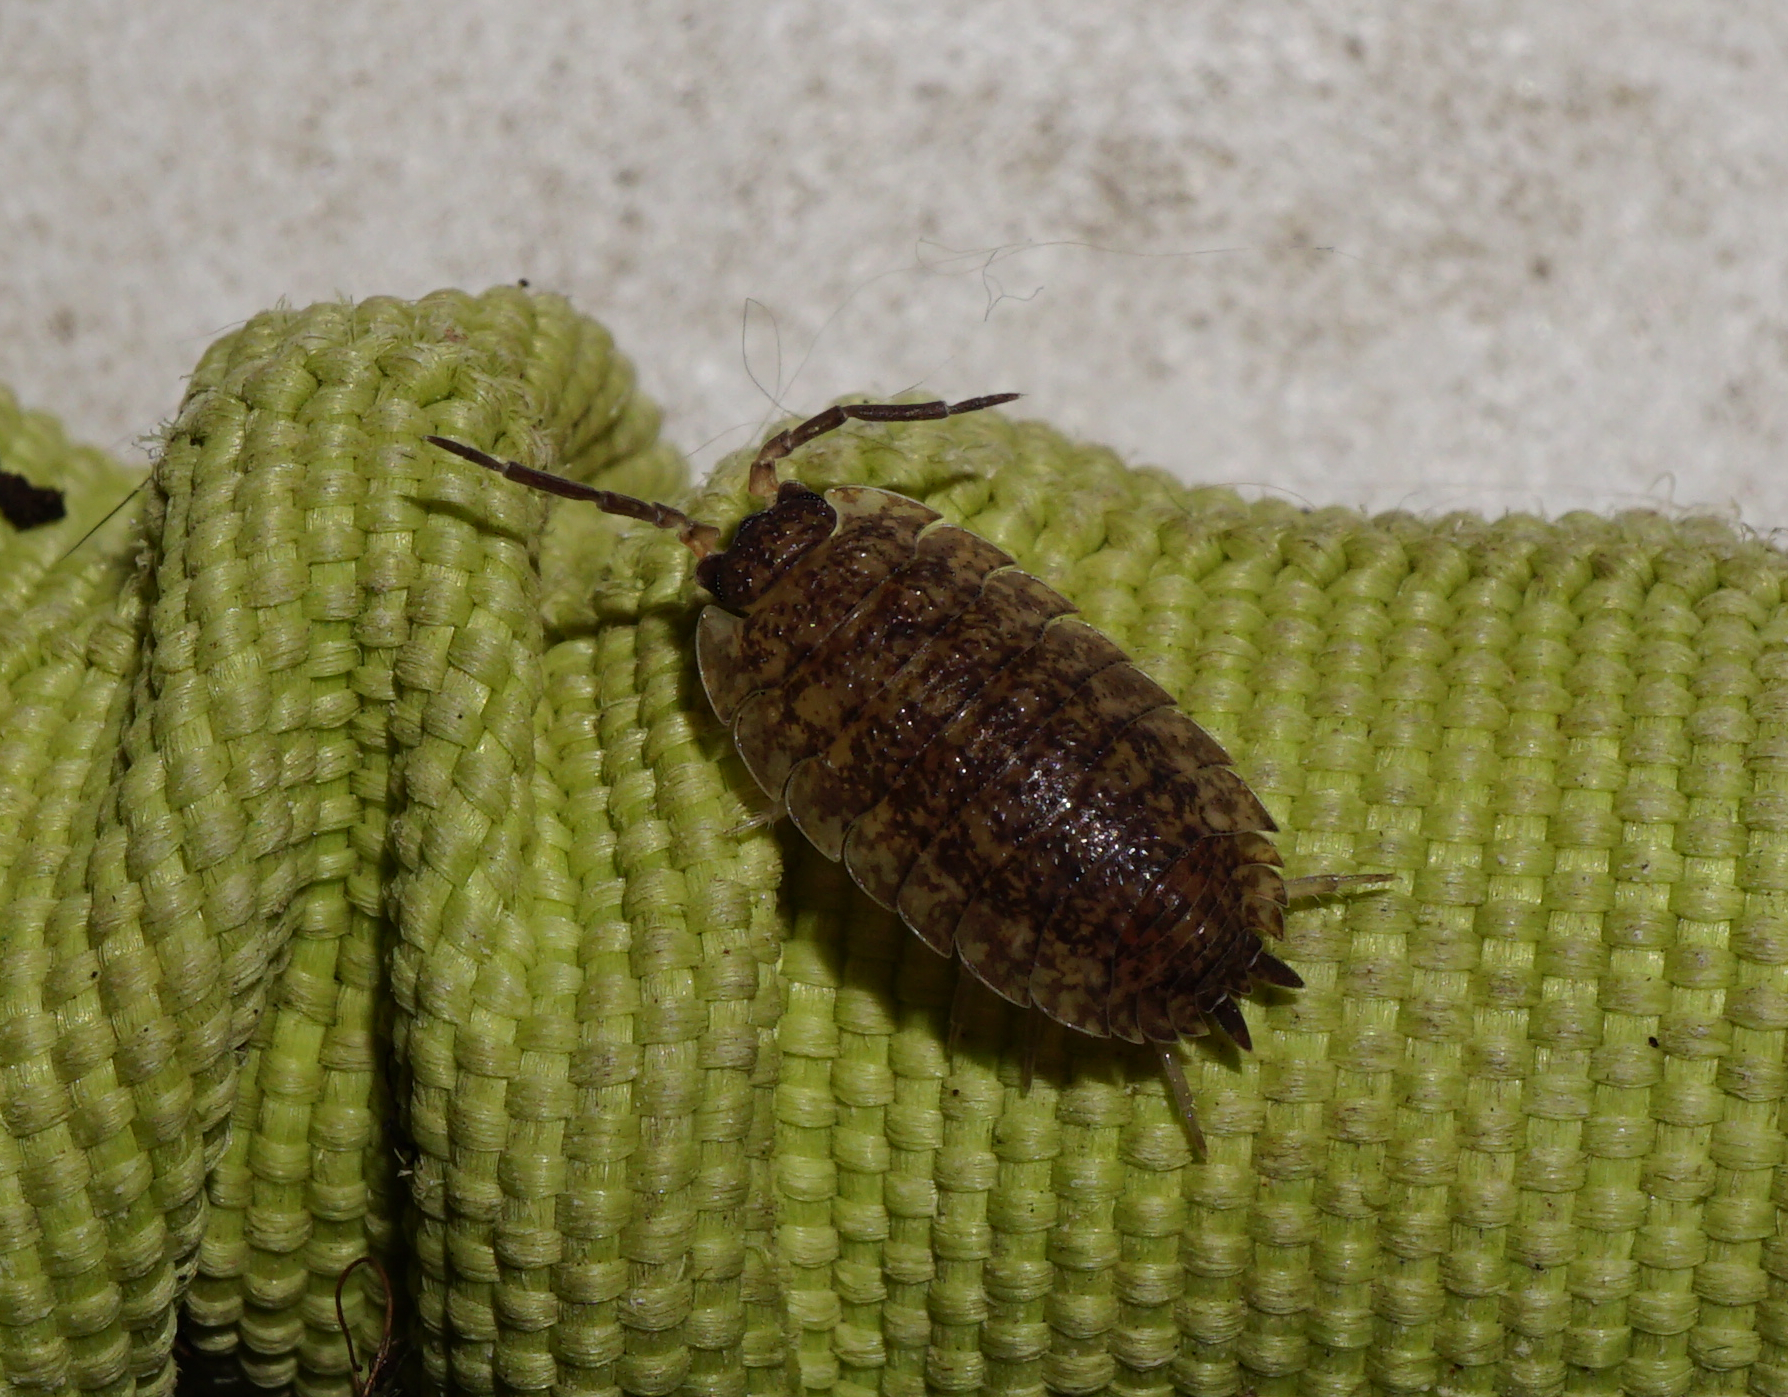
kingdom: Animalia
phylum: Arthropoda
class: Malacostraca
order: Isopoda
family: Porcellionidae
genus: Porcellio
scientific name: Porcellio scaber
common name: Common rough woodlouse
